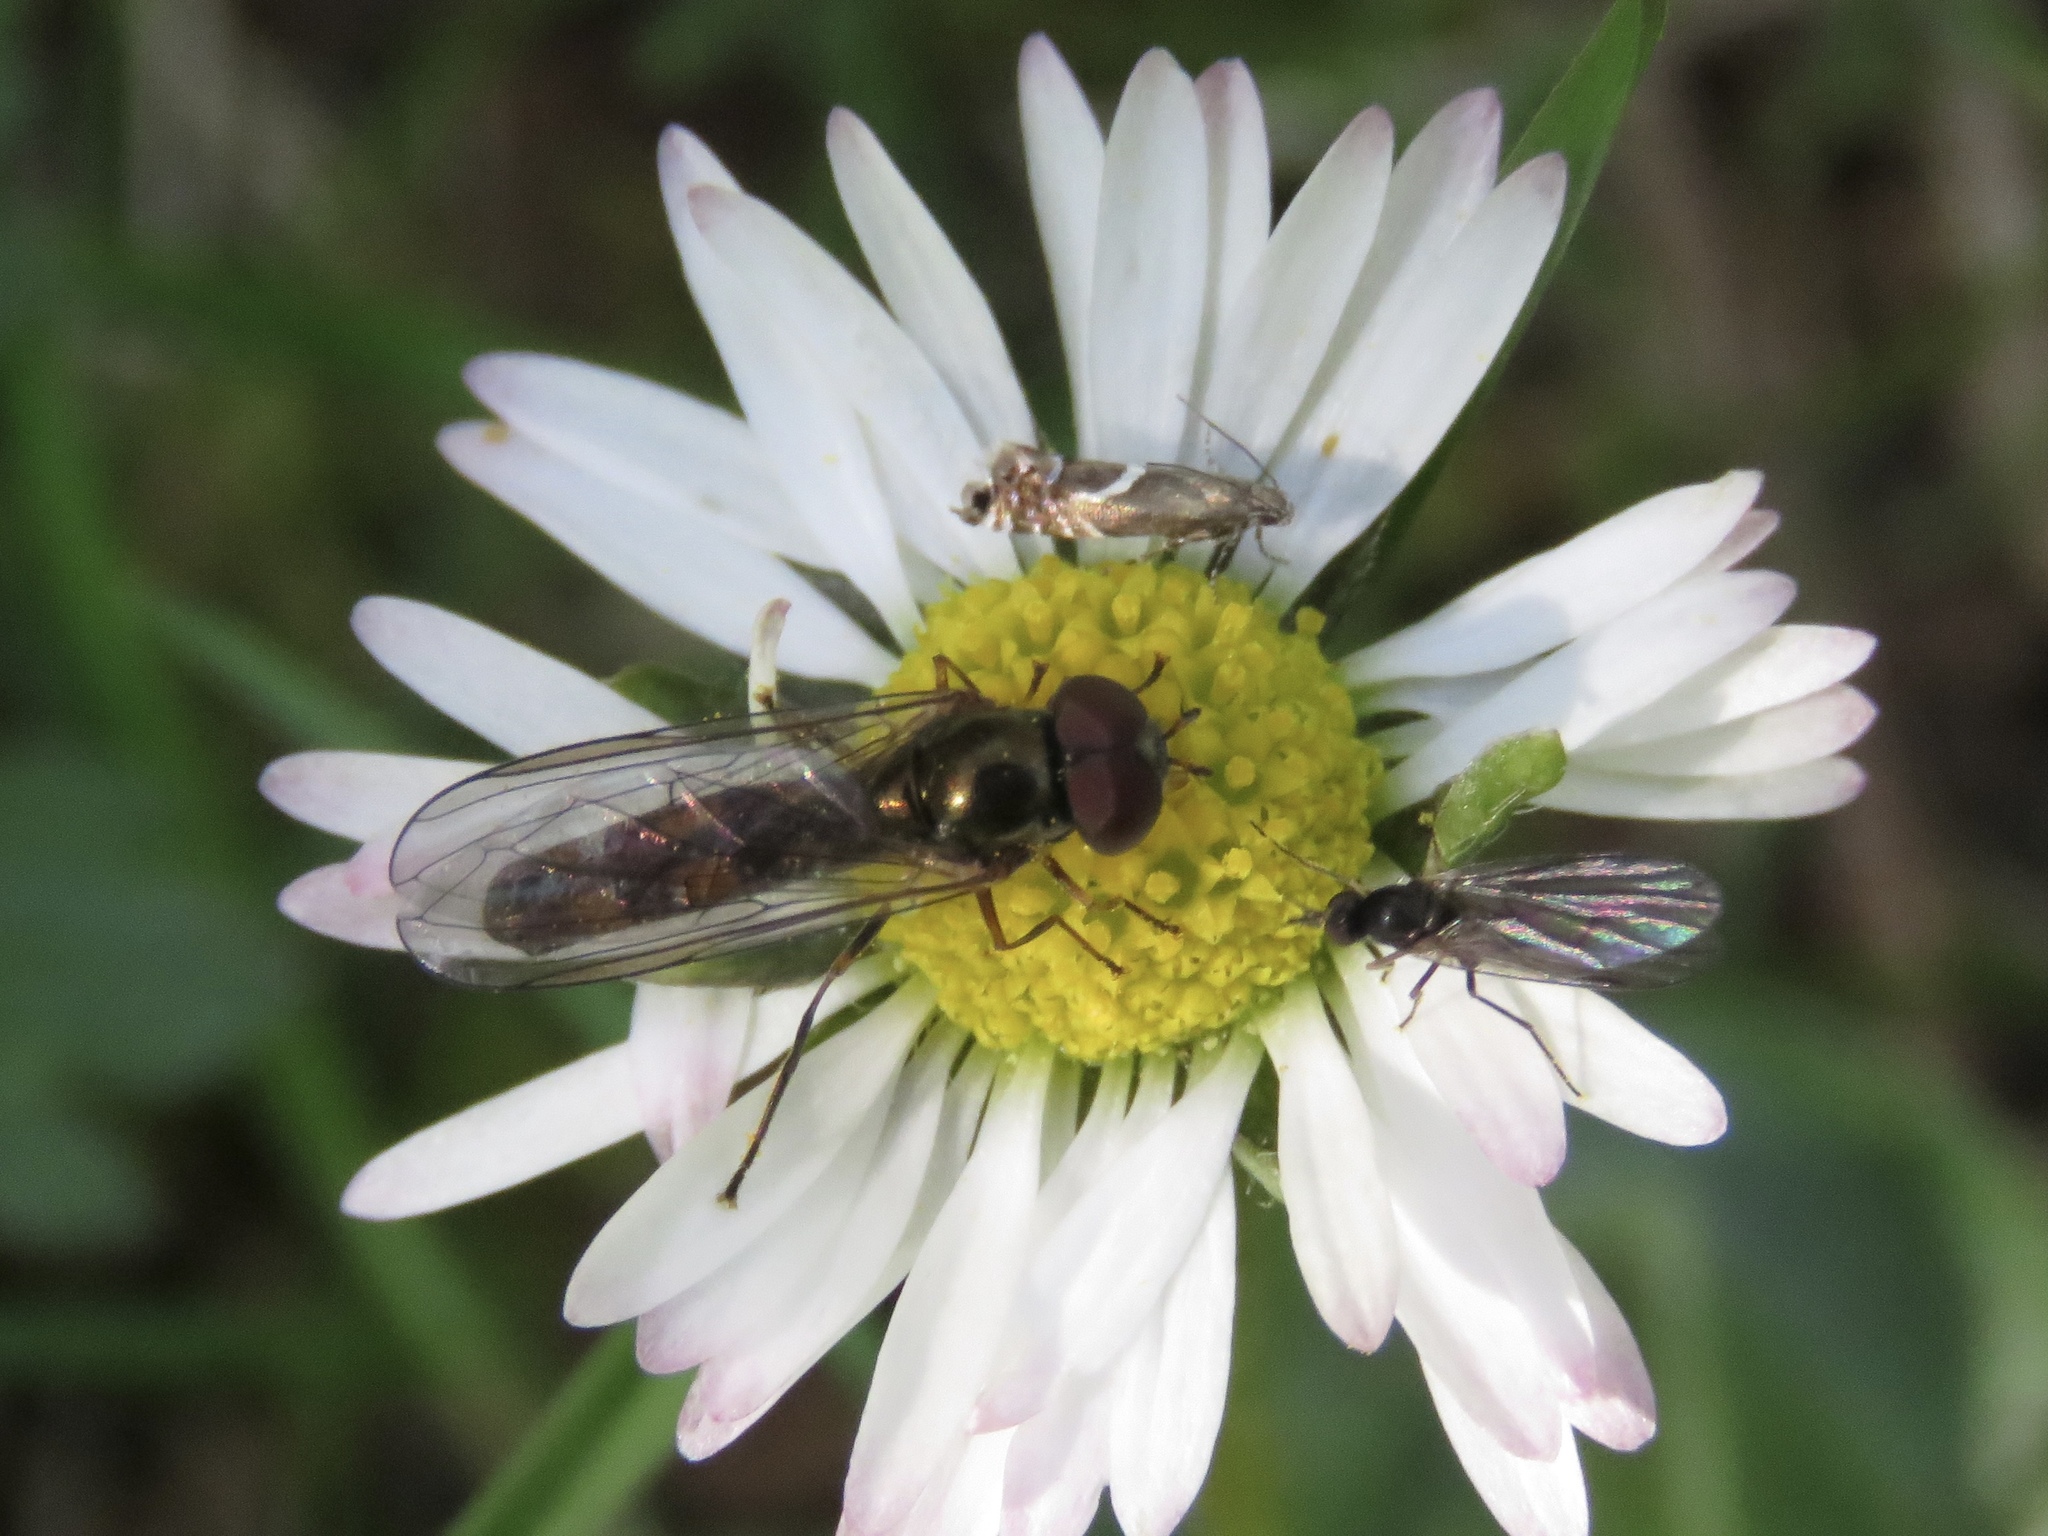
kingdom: Animalia
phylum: Arthropoda
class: Insecta
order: Lepidoptera
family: Glyphipterigidae
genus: Glyphipterix
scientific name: Glyphipterix Diploschizia impigritella
